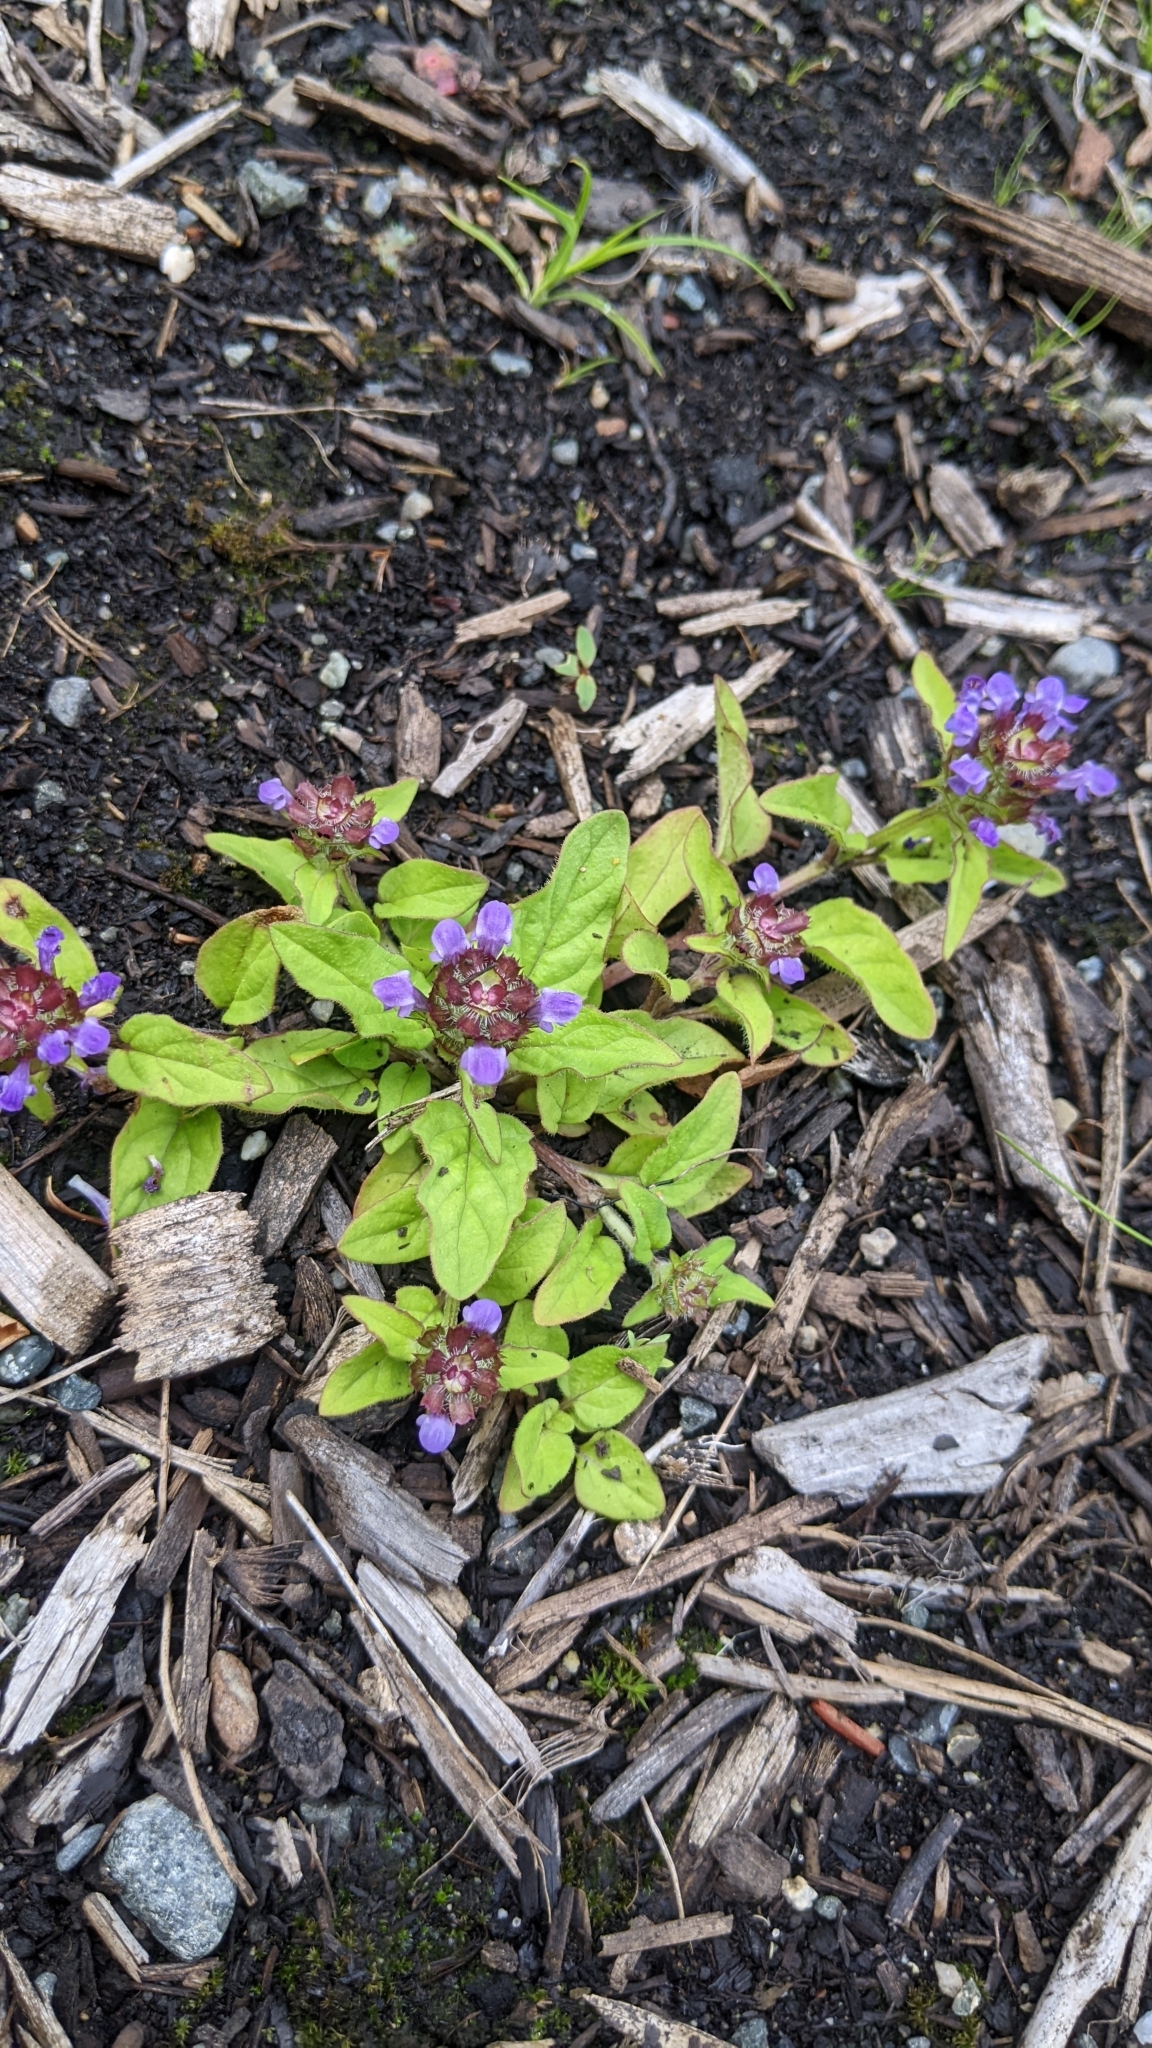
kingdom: Plantae
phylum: Tracheophyta
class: Magnoliopsida
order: Lamiales
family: Lamiaceae
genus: Prunella
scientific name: Prunella vulgaris
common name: Heal-all
